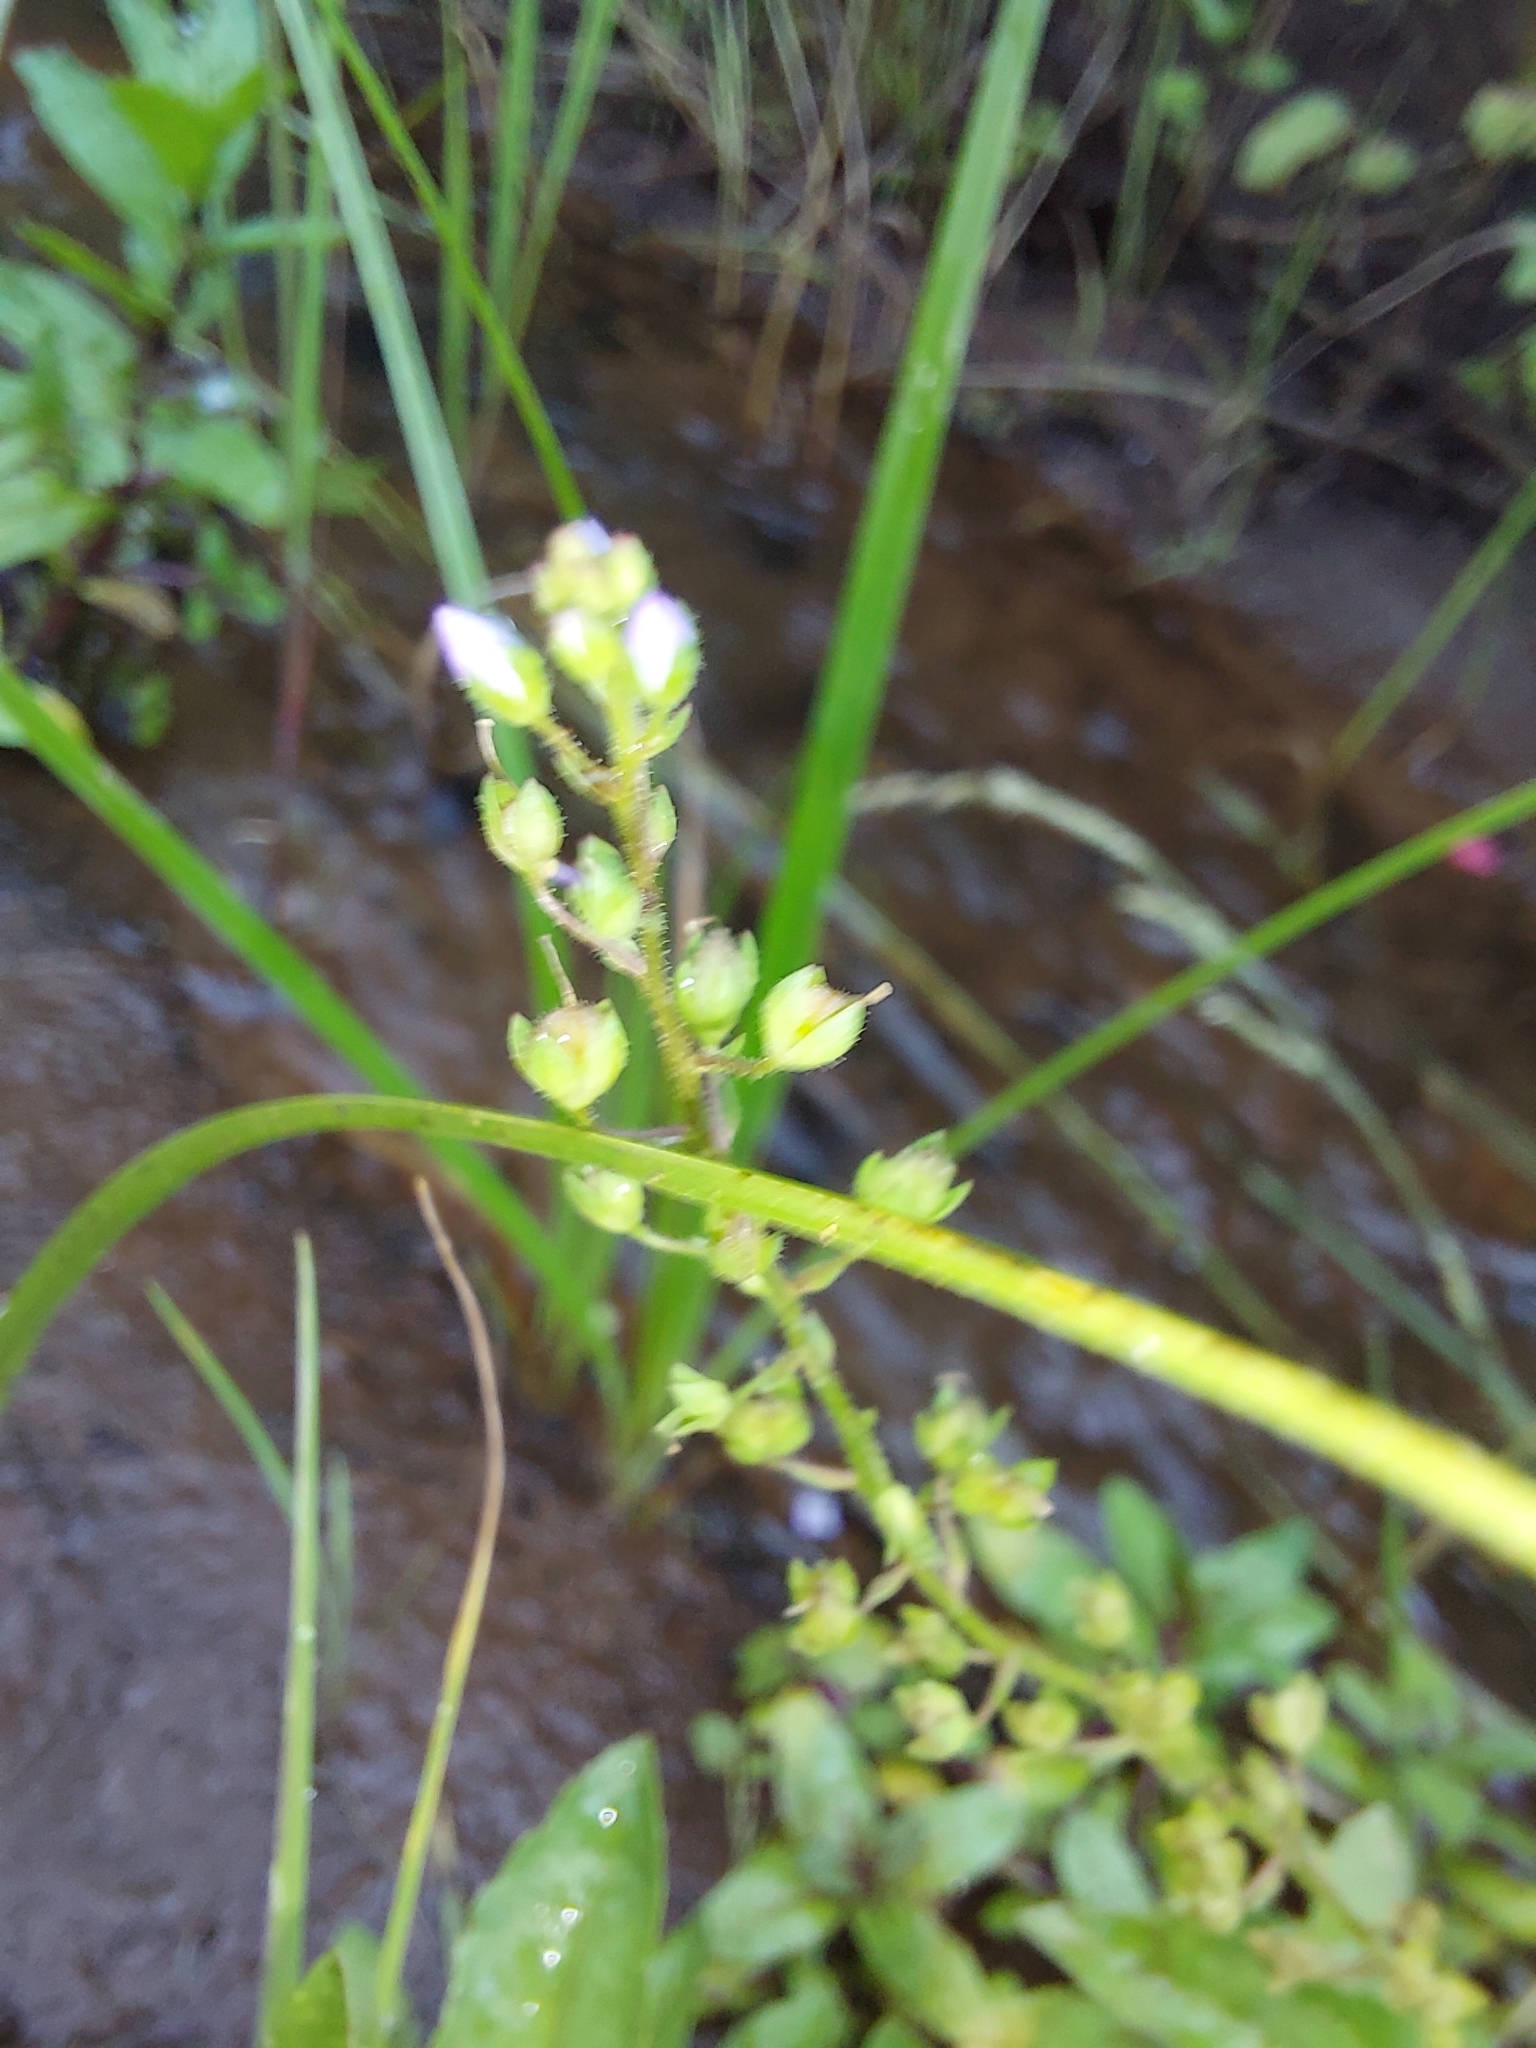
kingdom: Plantae
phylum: Tracheophyta
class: Magnoliopsida
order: Lamiales
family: Plantaginaceae
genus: Veronica
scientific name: Veronica anagallis-aquatica
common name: Water speedwell
